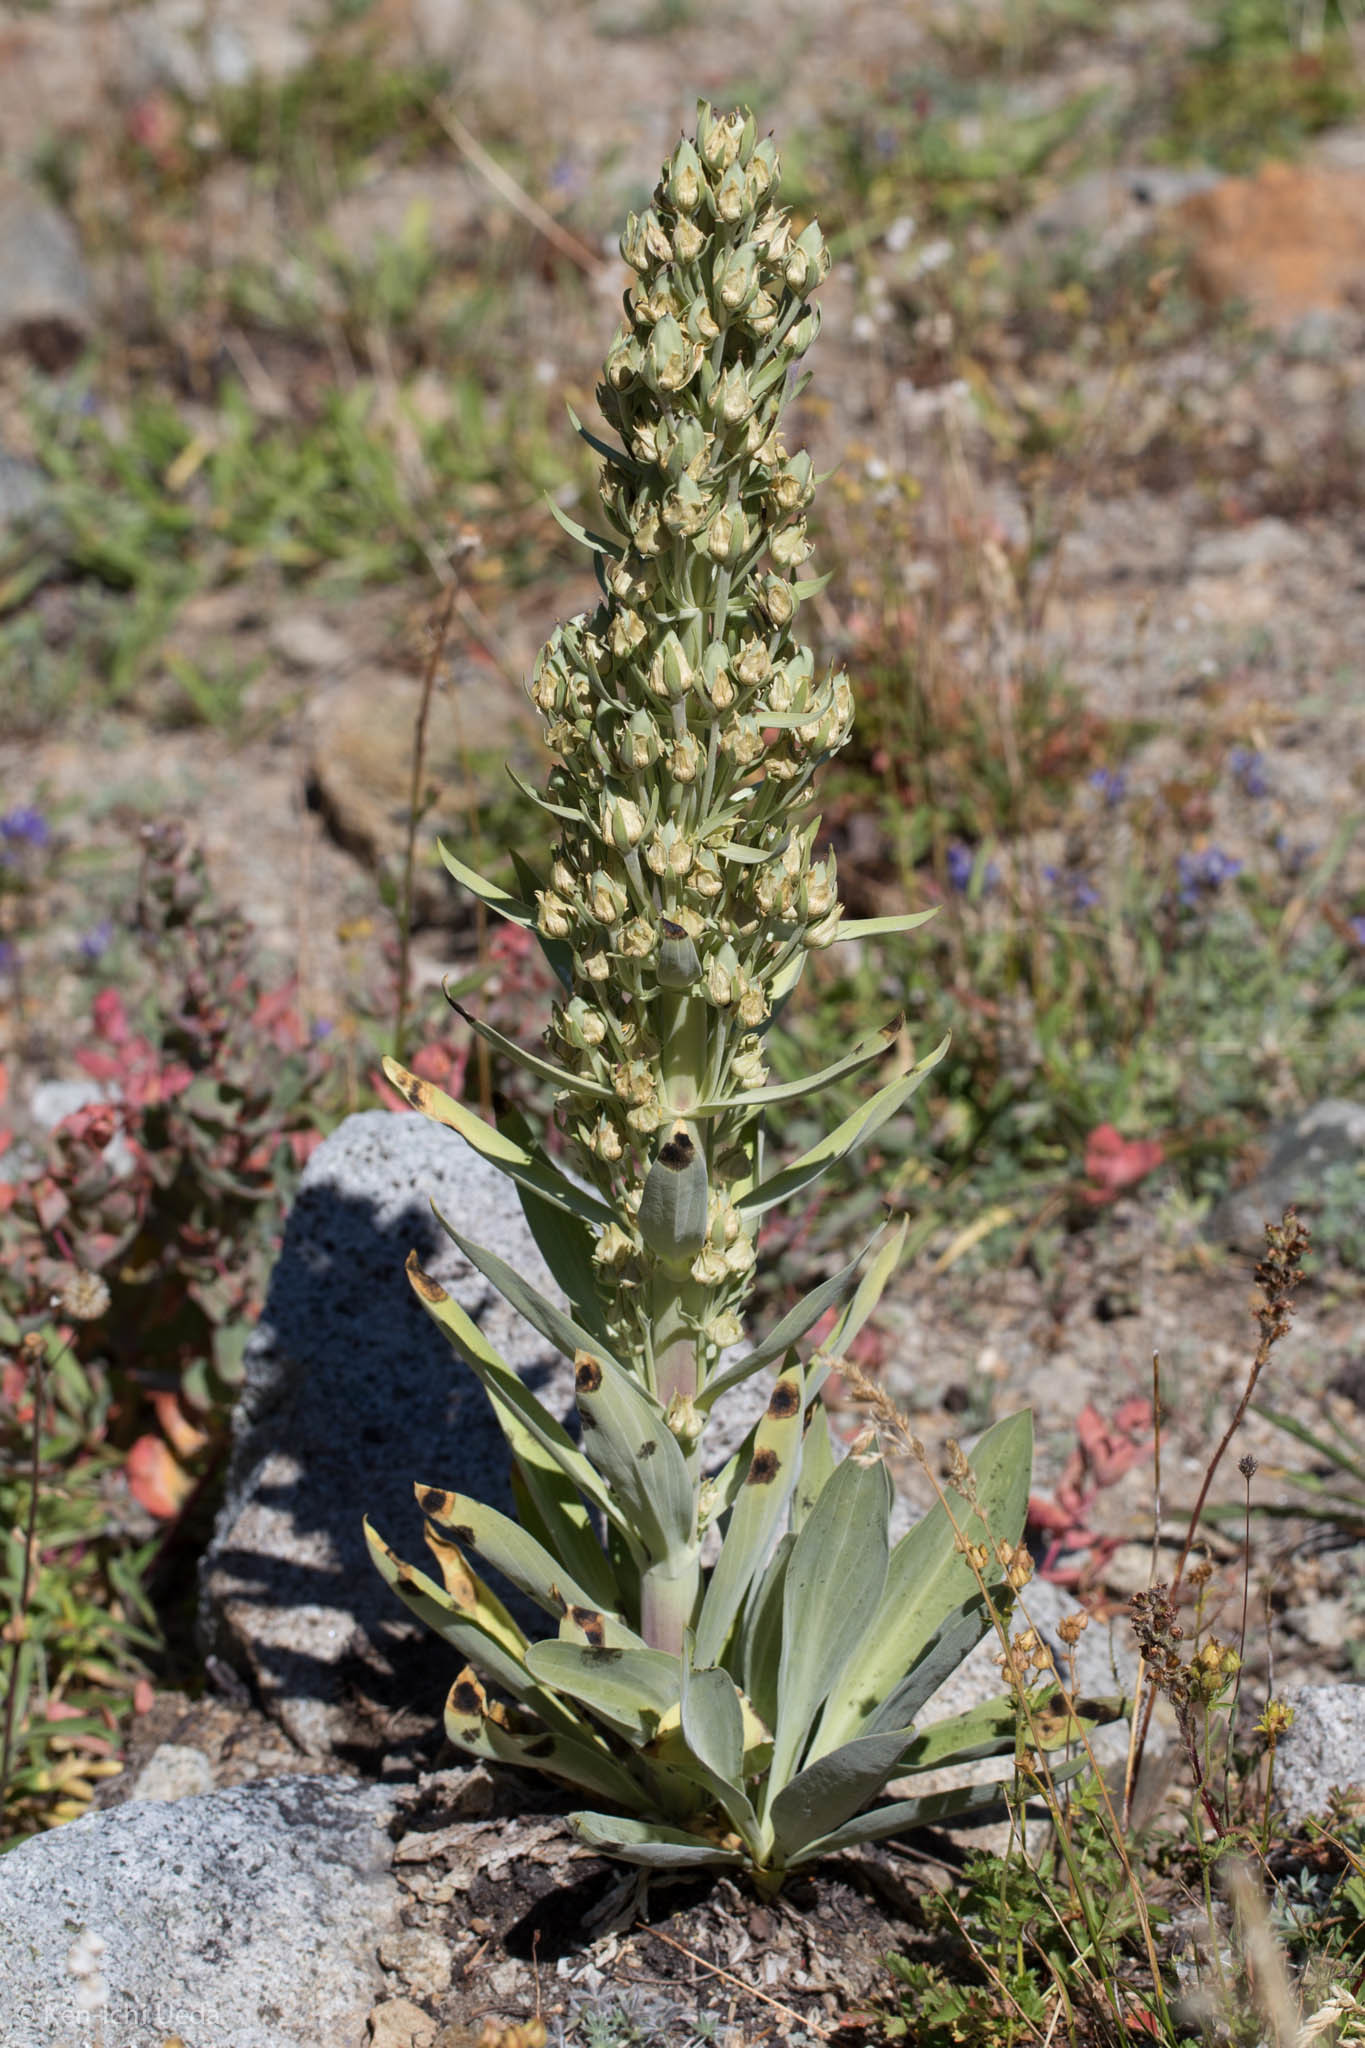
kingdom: Plantae
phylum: Tracheophyta
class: Magnoliopsida
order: Gentianales
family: Gentianaceae
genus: Frasera
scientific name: Frasera speciosa
